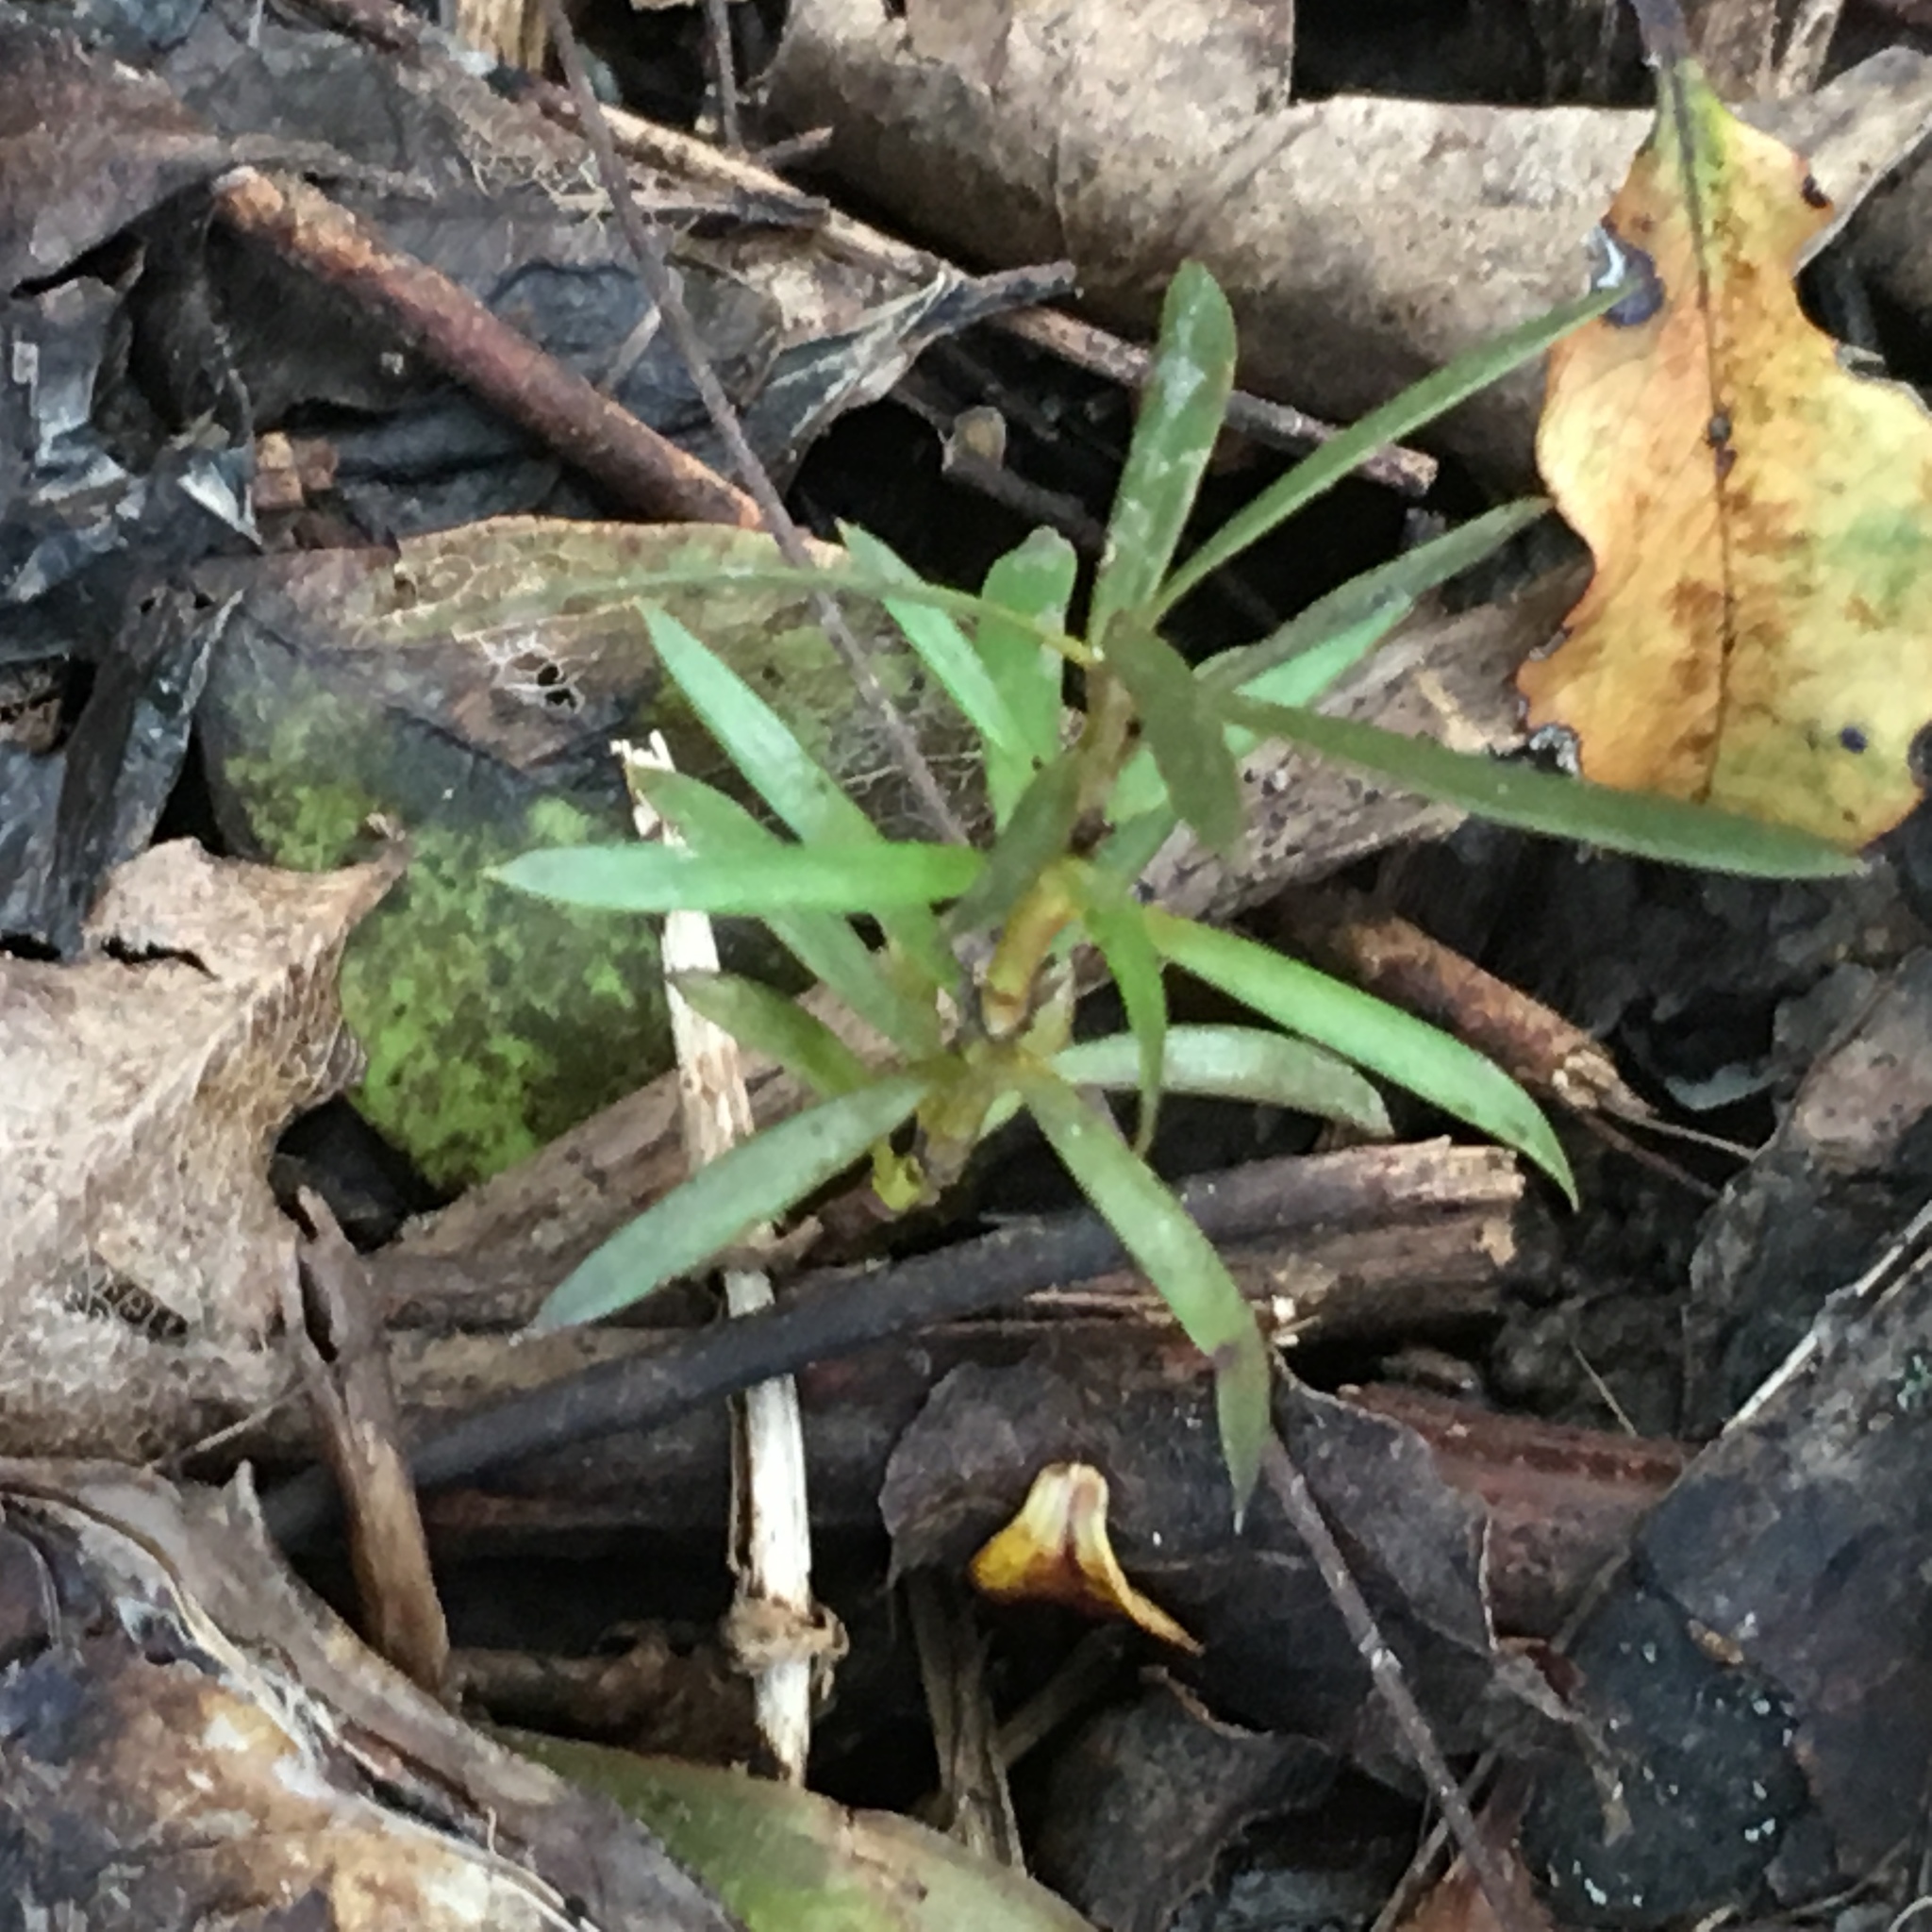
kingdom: Plantae
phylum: Tracheophyta
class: Pinopsida
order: Pinales
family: Podocarpaceae
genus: Podocarpus
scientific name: Podocarpus totara
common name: Totara
